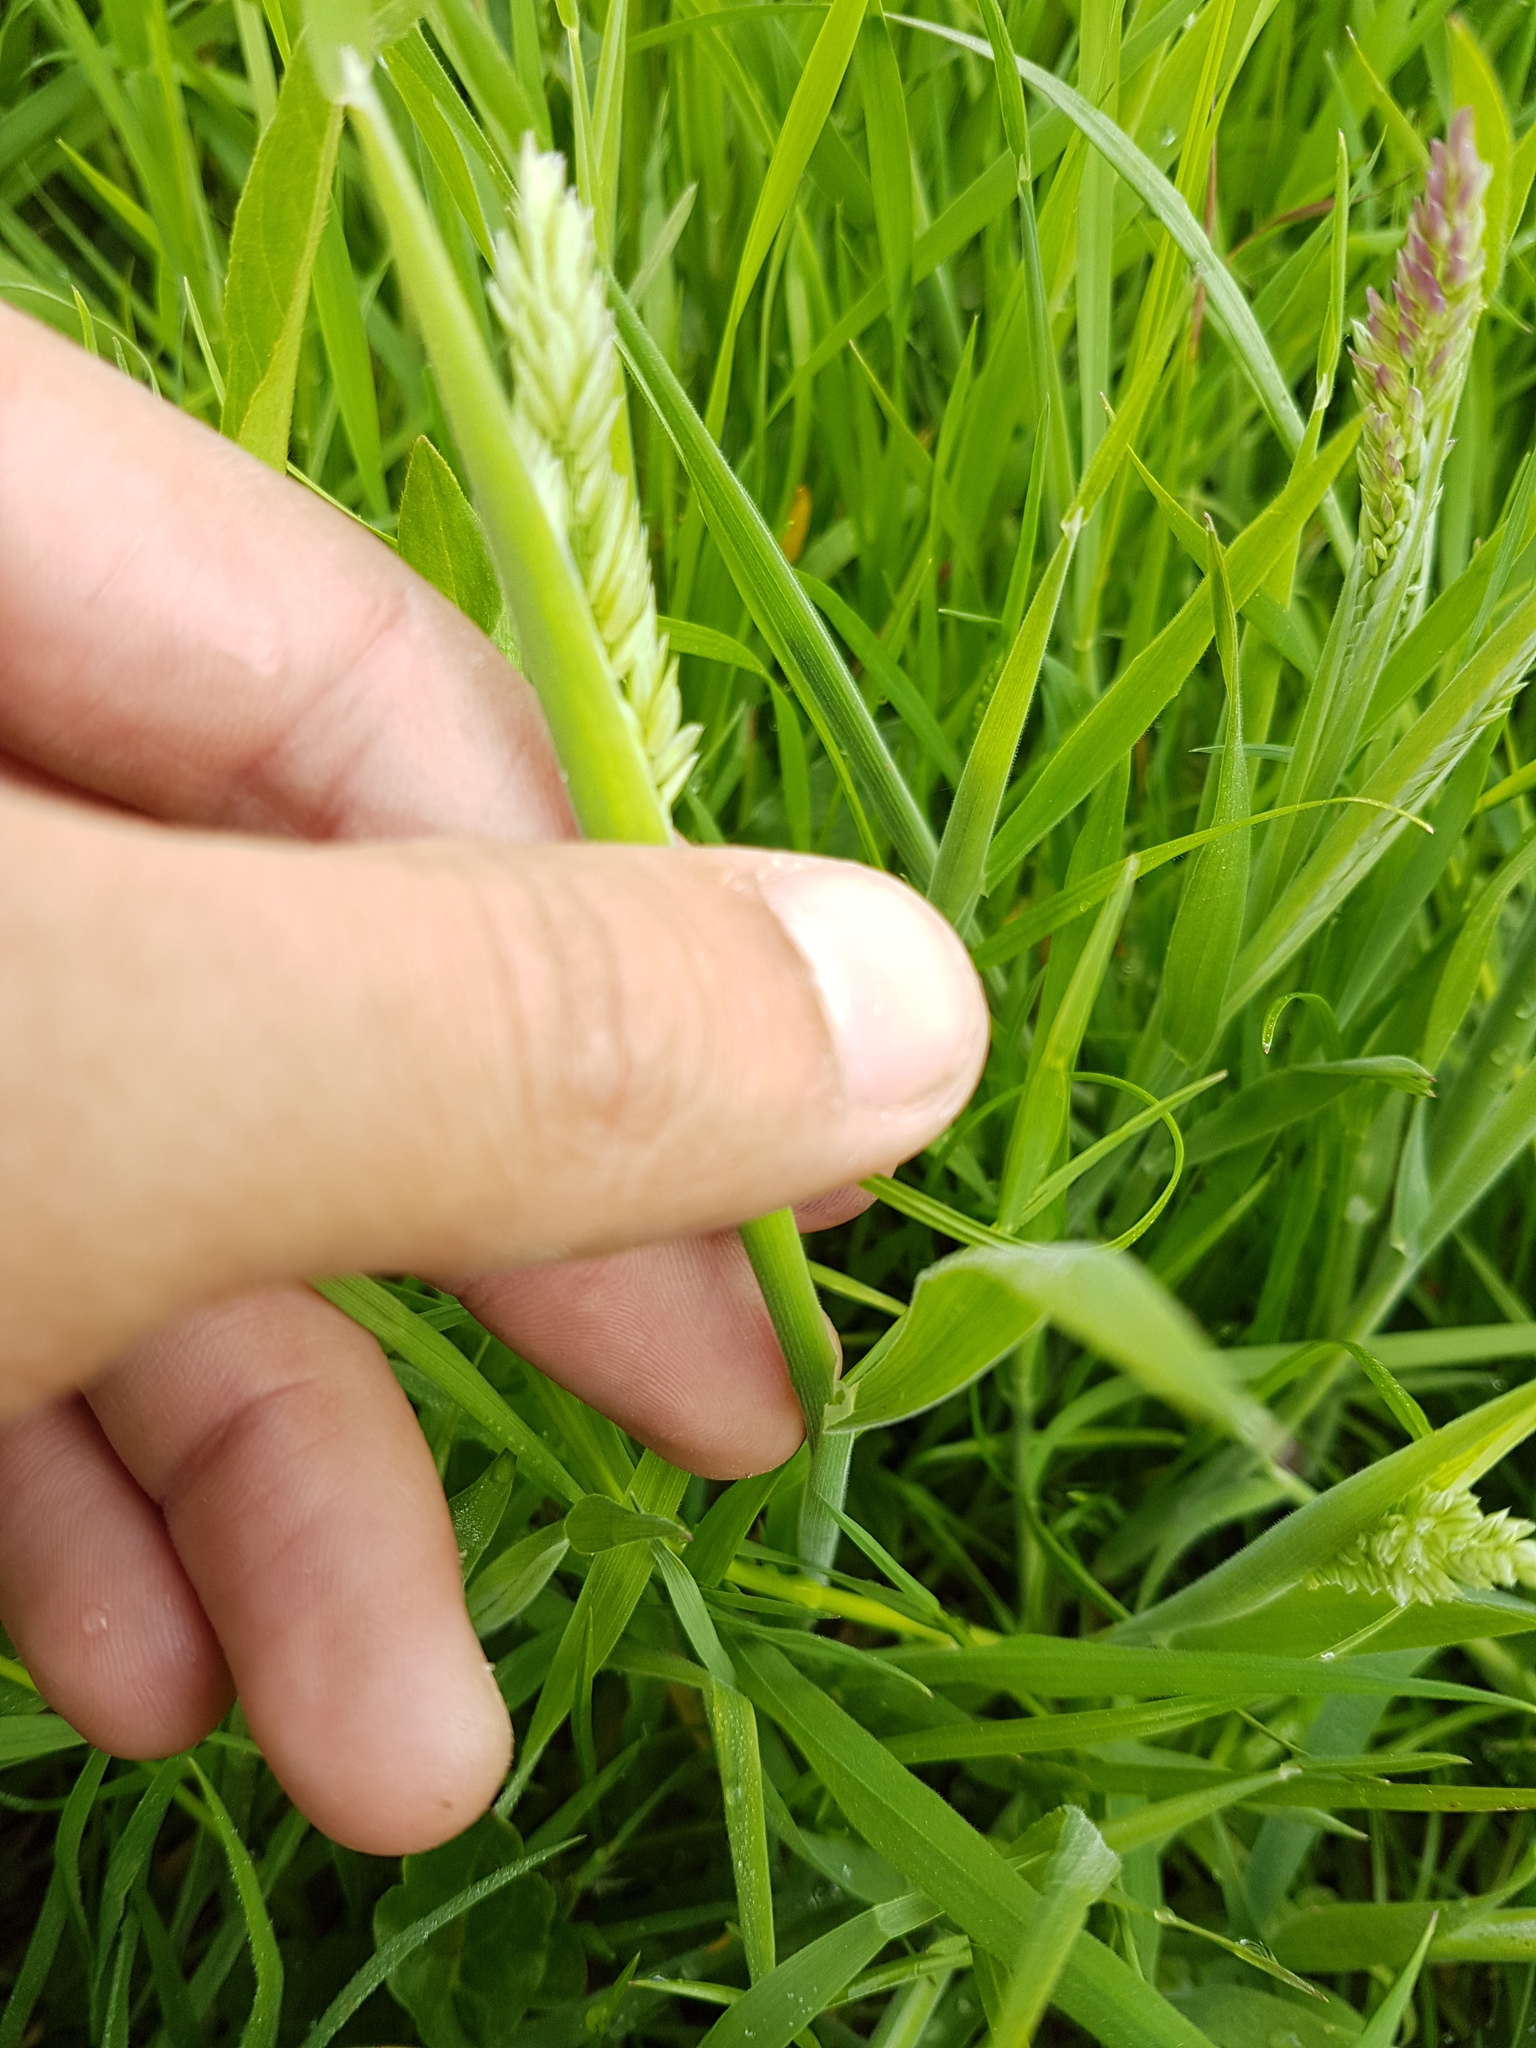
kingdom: Plantae
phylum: Tracheophyta
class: Liliopsida
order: Poales
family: Poaceae
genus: Holcus
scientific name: Holcus lanatus
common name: Yorkshire-fog
